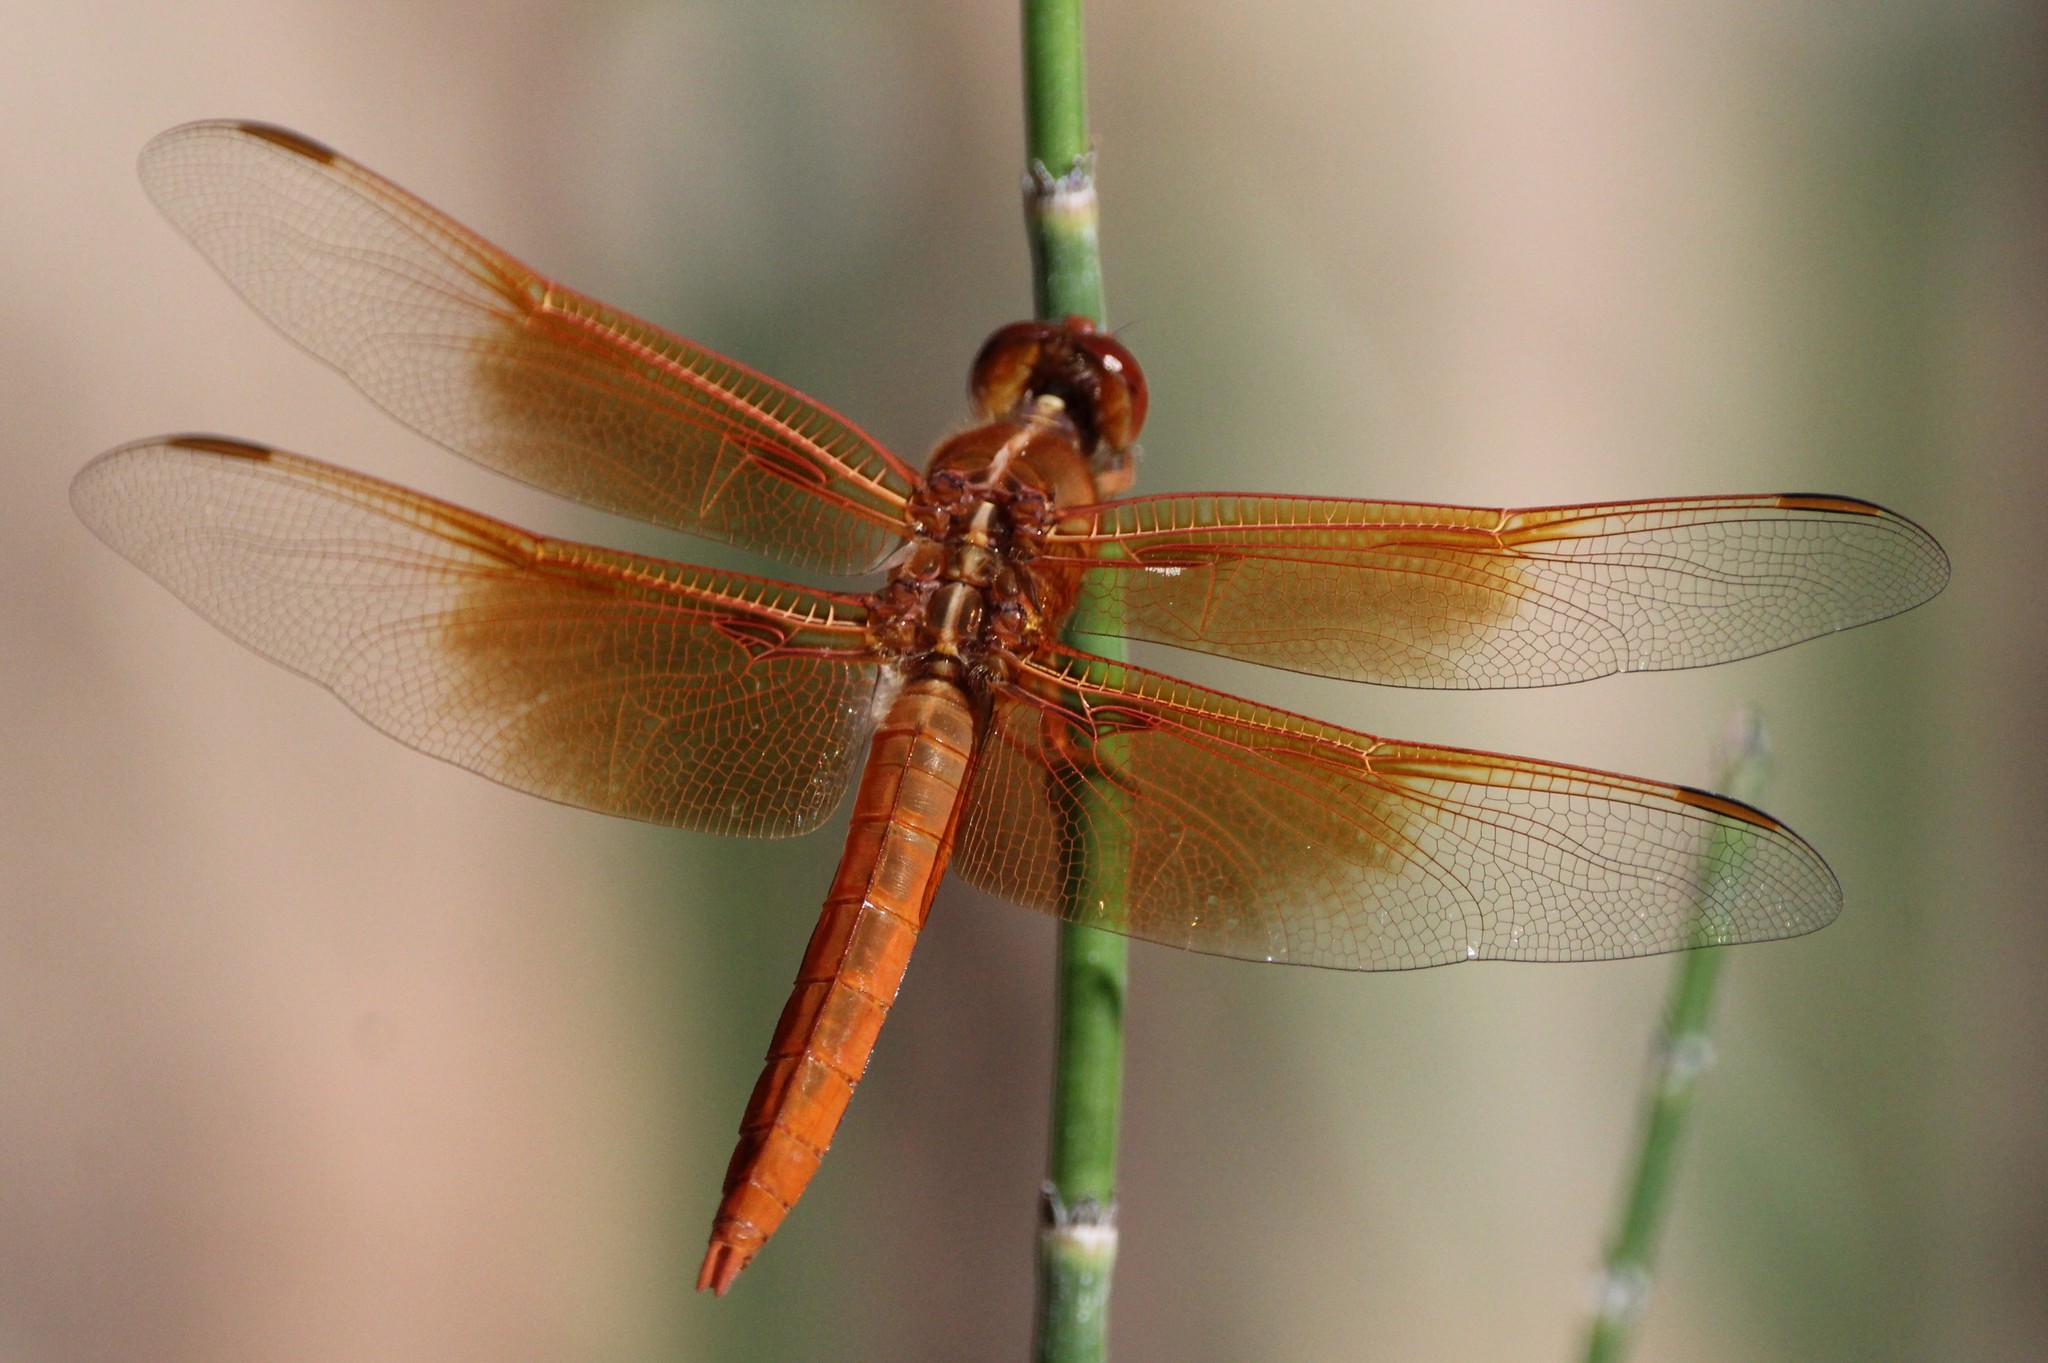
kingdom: Animalia
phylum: Arthropoda
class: Insecta
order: Odonata
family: Libellulidae
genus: Libellula
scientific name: Libellula saturata
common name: Flame skimmer
